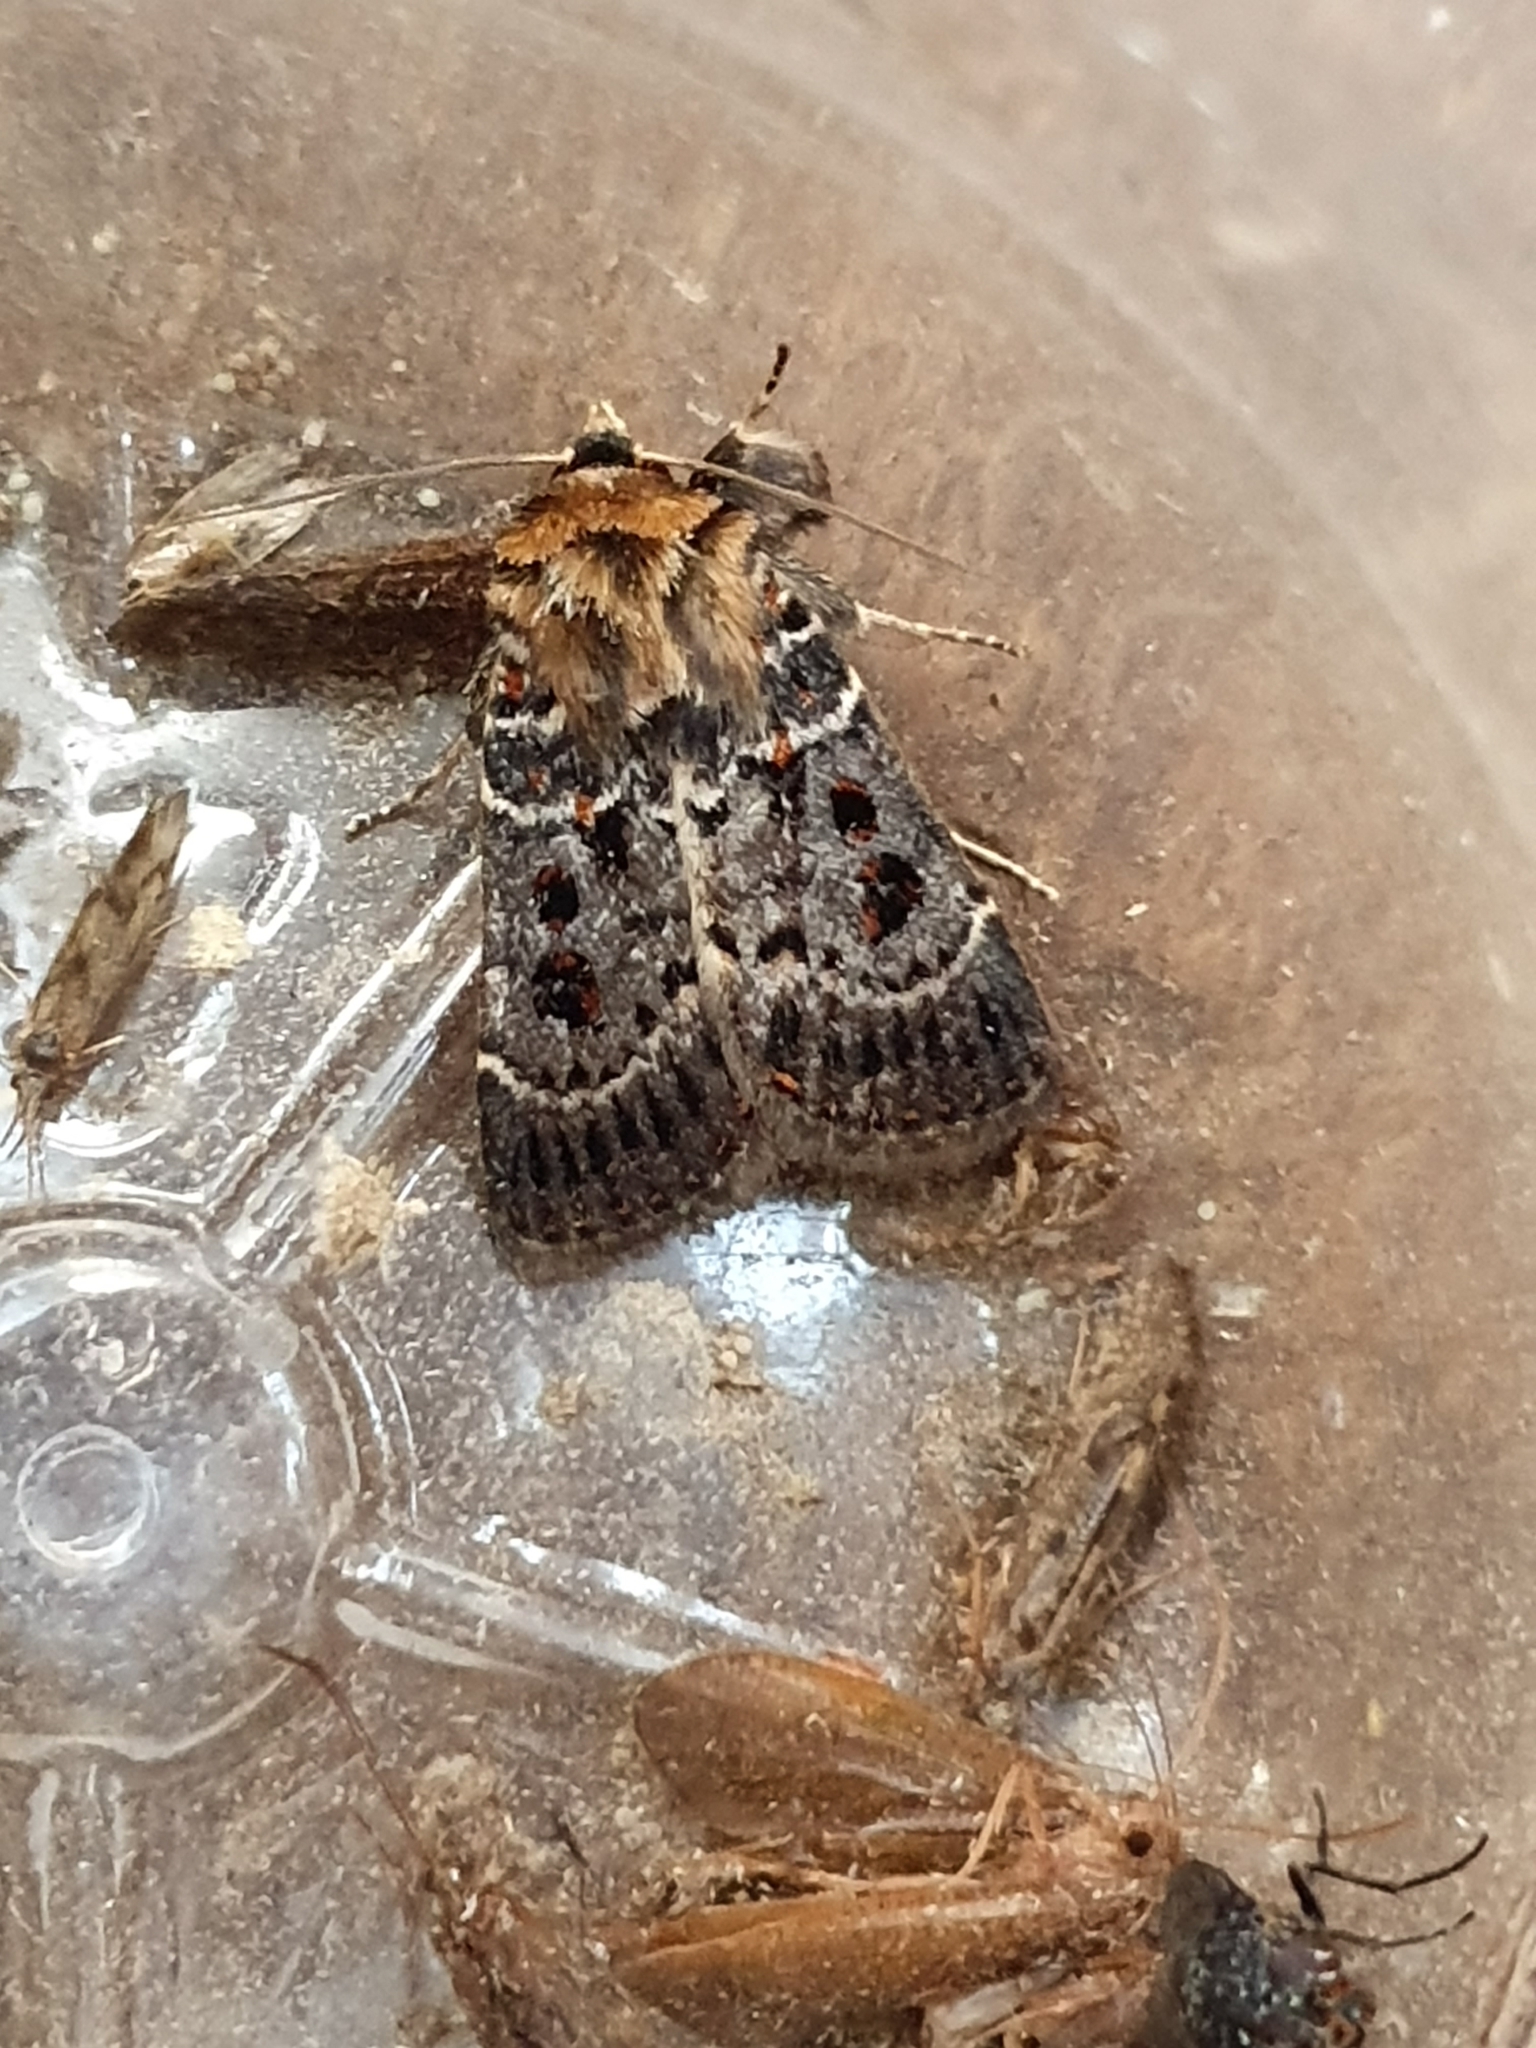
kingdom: Animalia
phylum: Arthropoda
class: Insecta
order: Lepidoptera
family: Noctuidae
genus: Proteuxoa
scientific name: Proteuxoa sanguinipuncta
